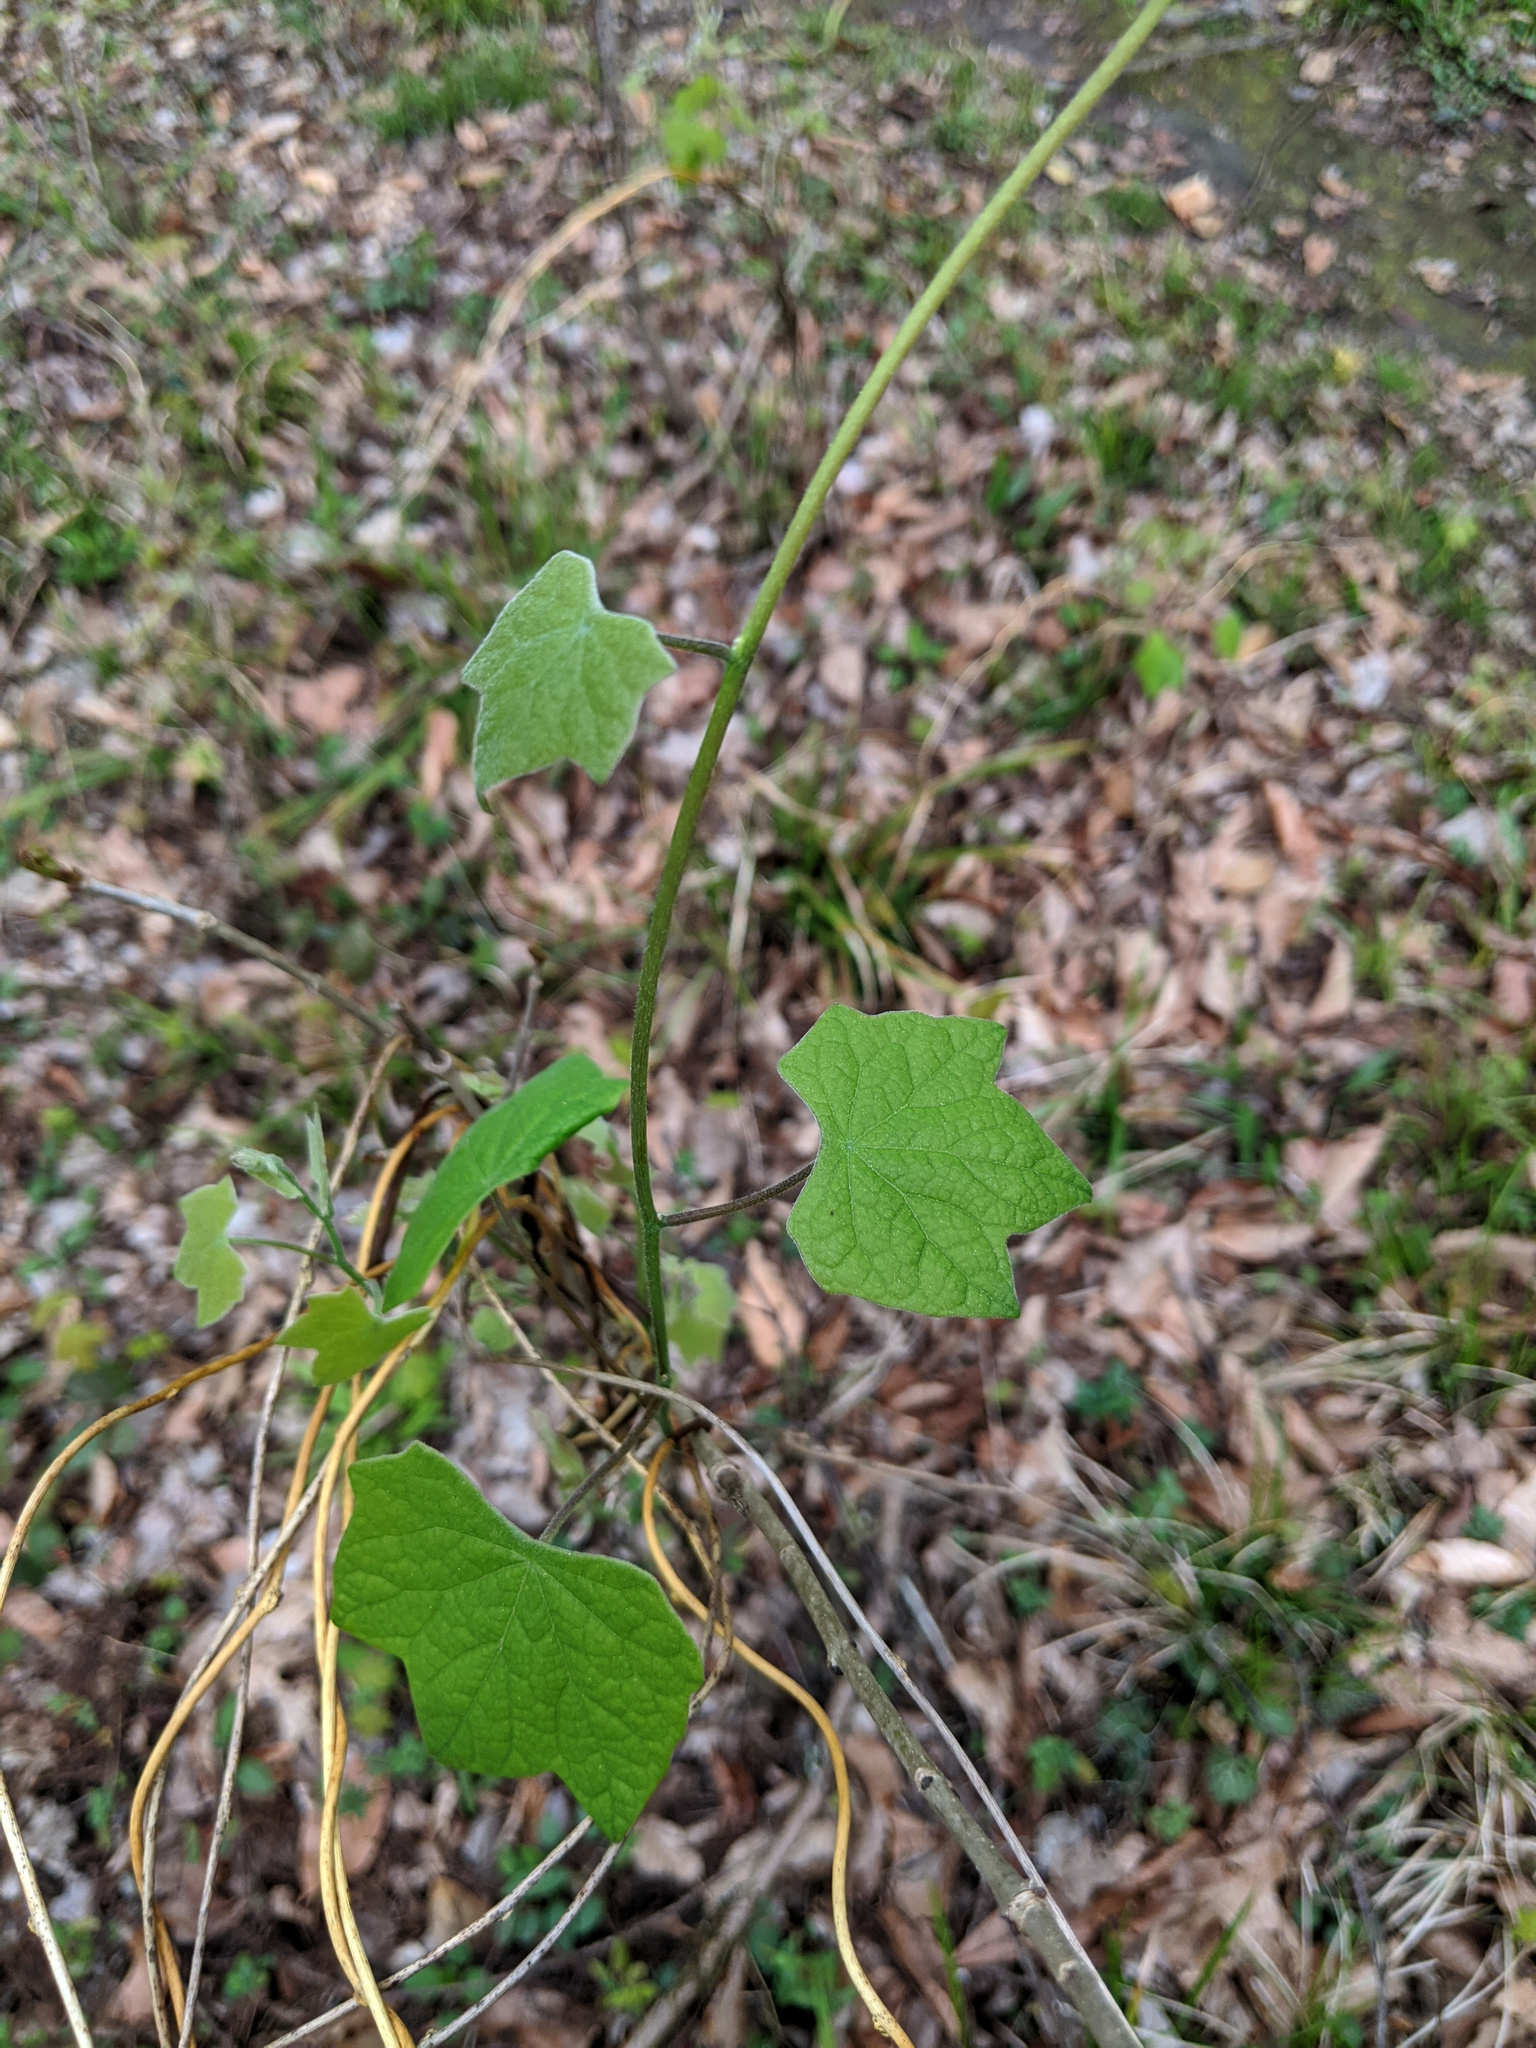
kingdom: Plantae
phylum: Tracheophyta
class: Magnoliopsida
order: Ranunculales
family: Menispermaceae
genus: Menispermum
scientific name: Menispermum canadense
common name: Moonseed
